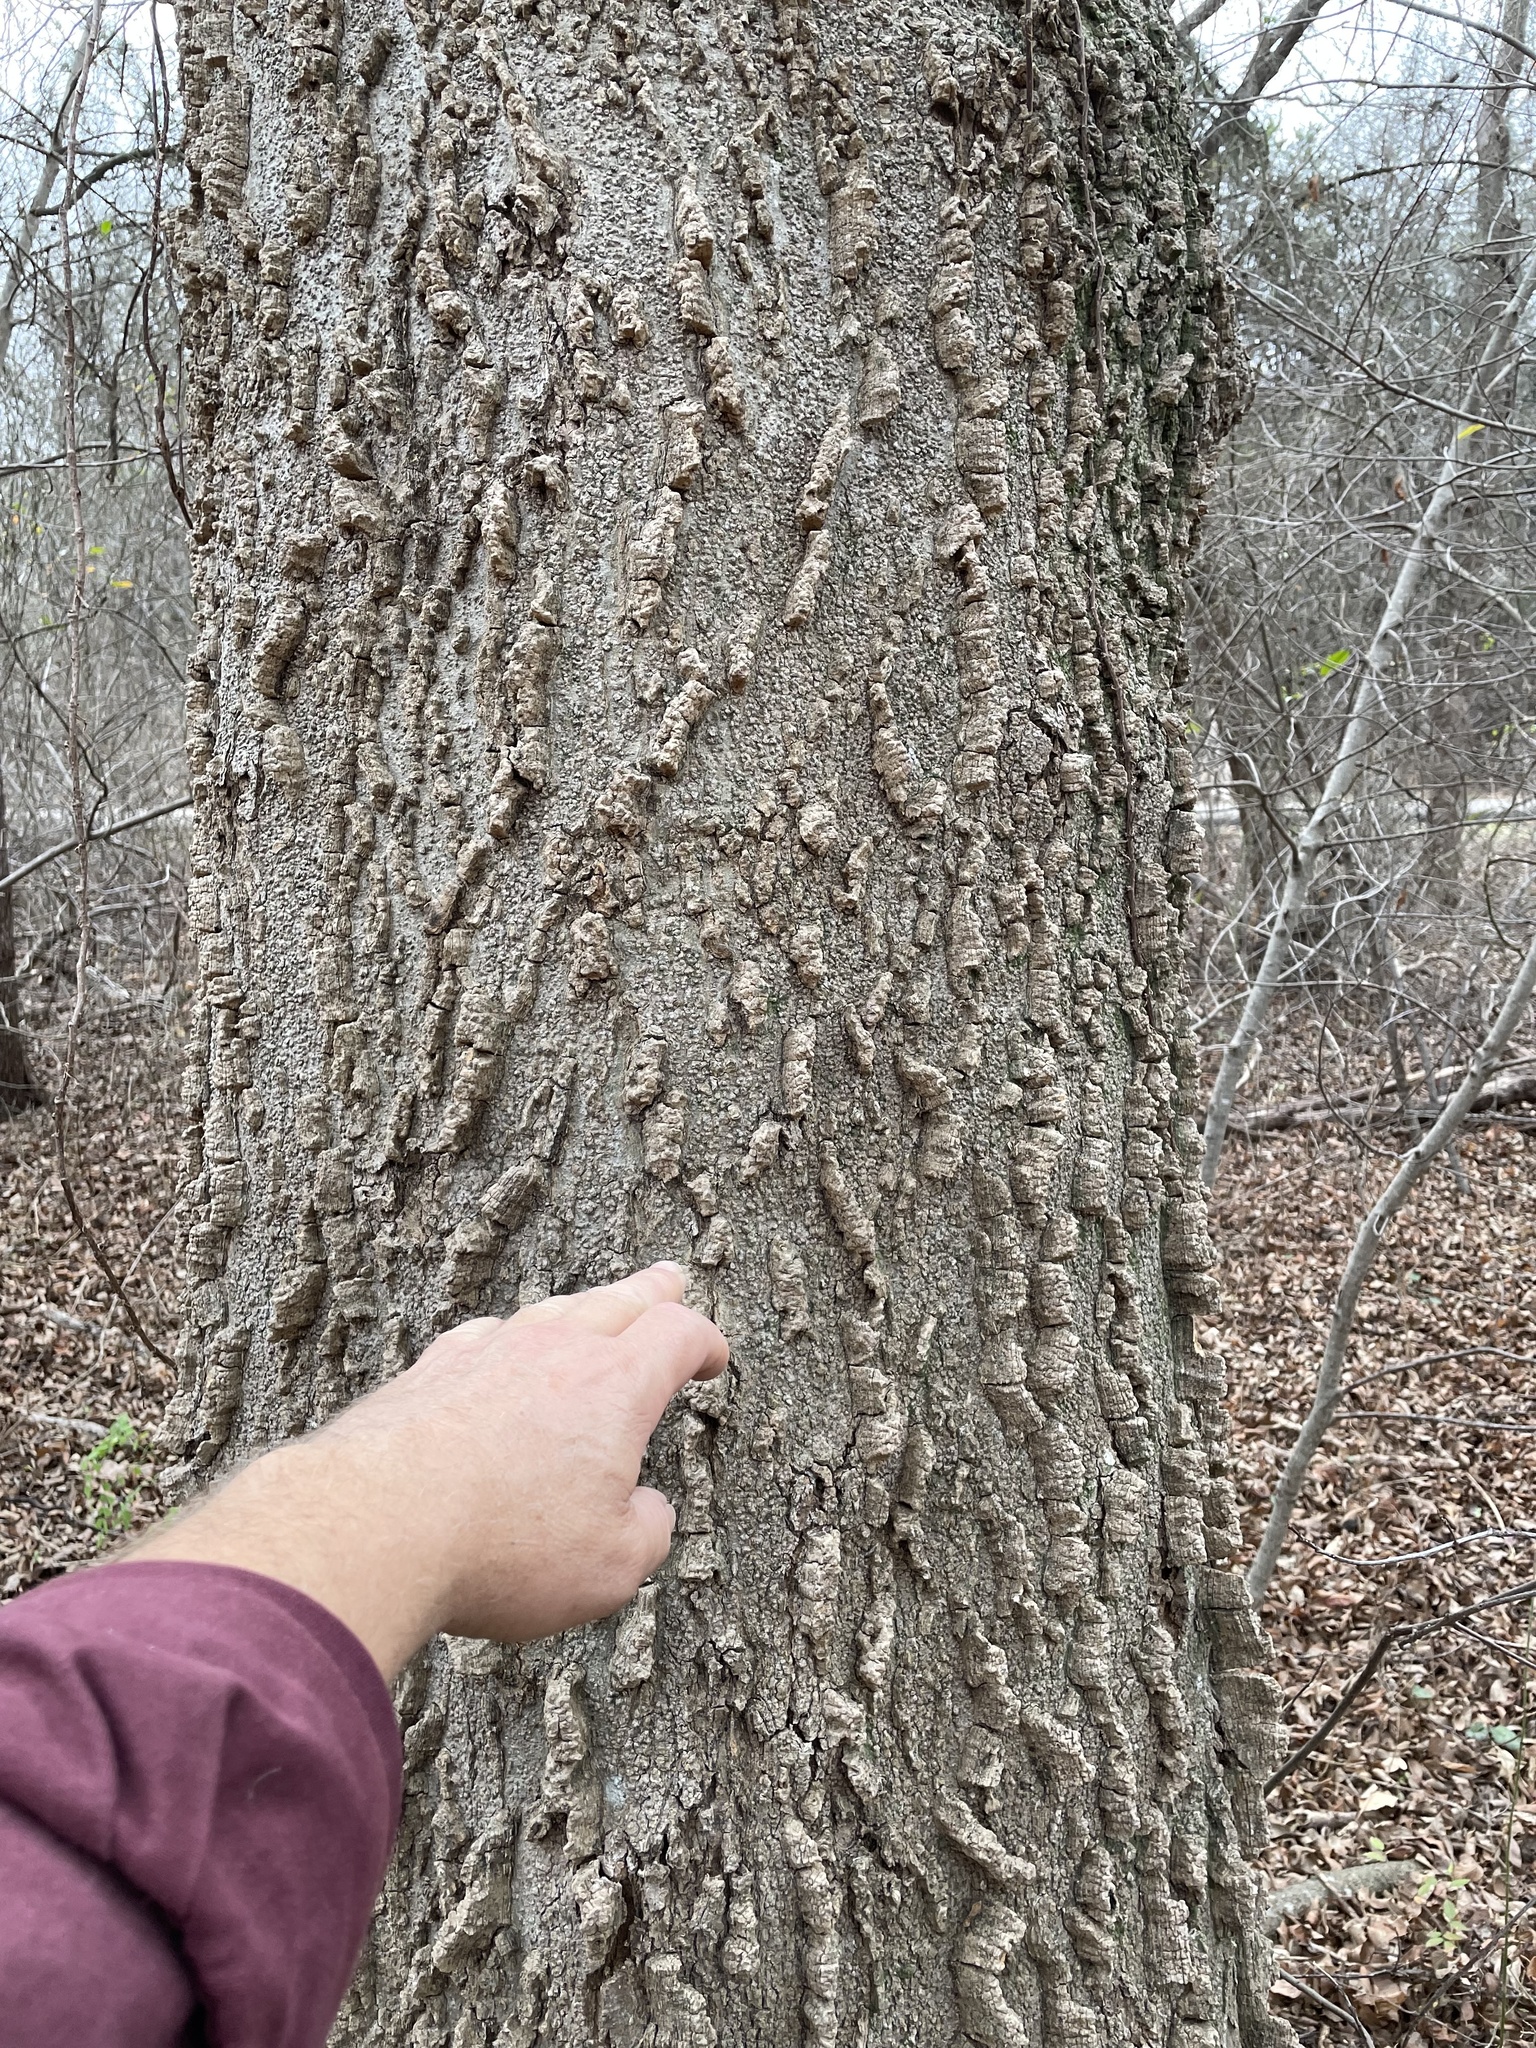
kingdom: Plantae
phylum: Tracheophyta
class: Magnoliopsida
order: Rosales
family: Cannabaceae
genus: Celtis
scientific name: Celtis laevigata
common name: Sugarberry
